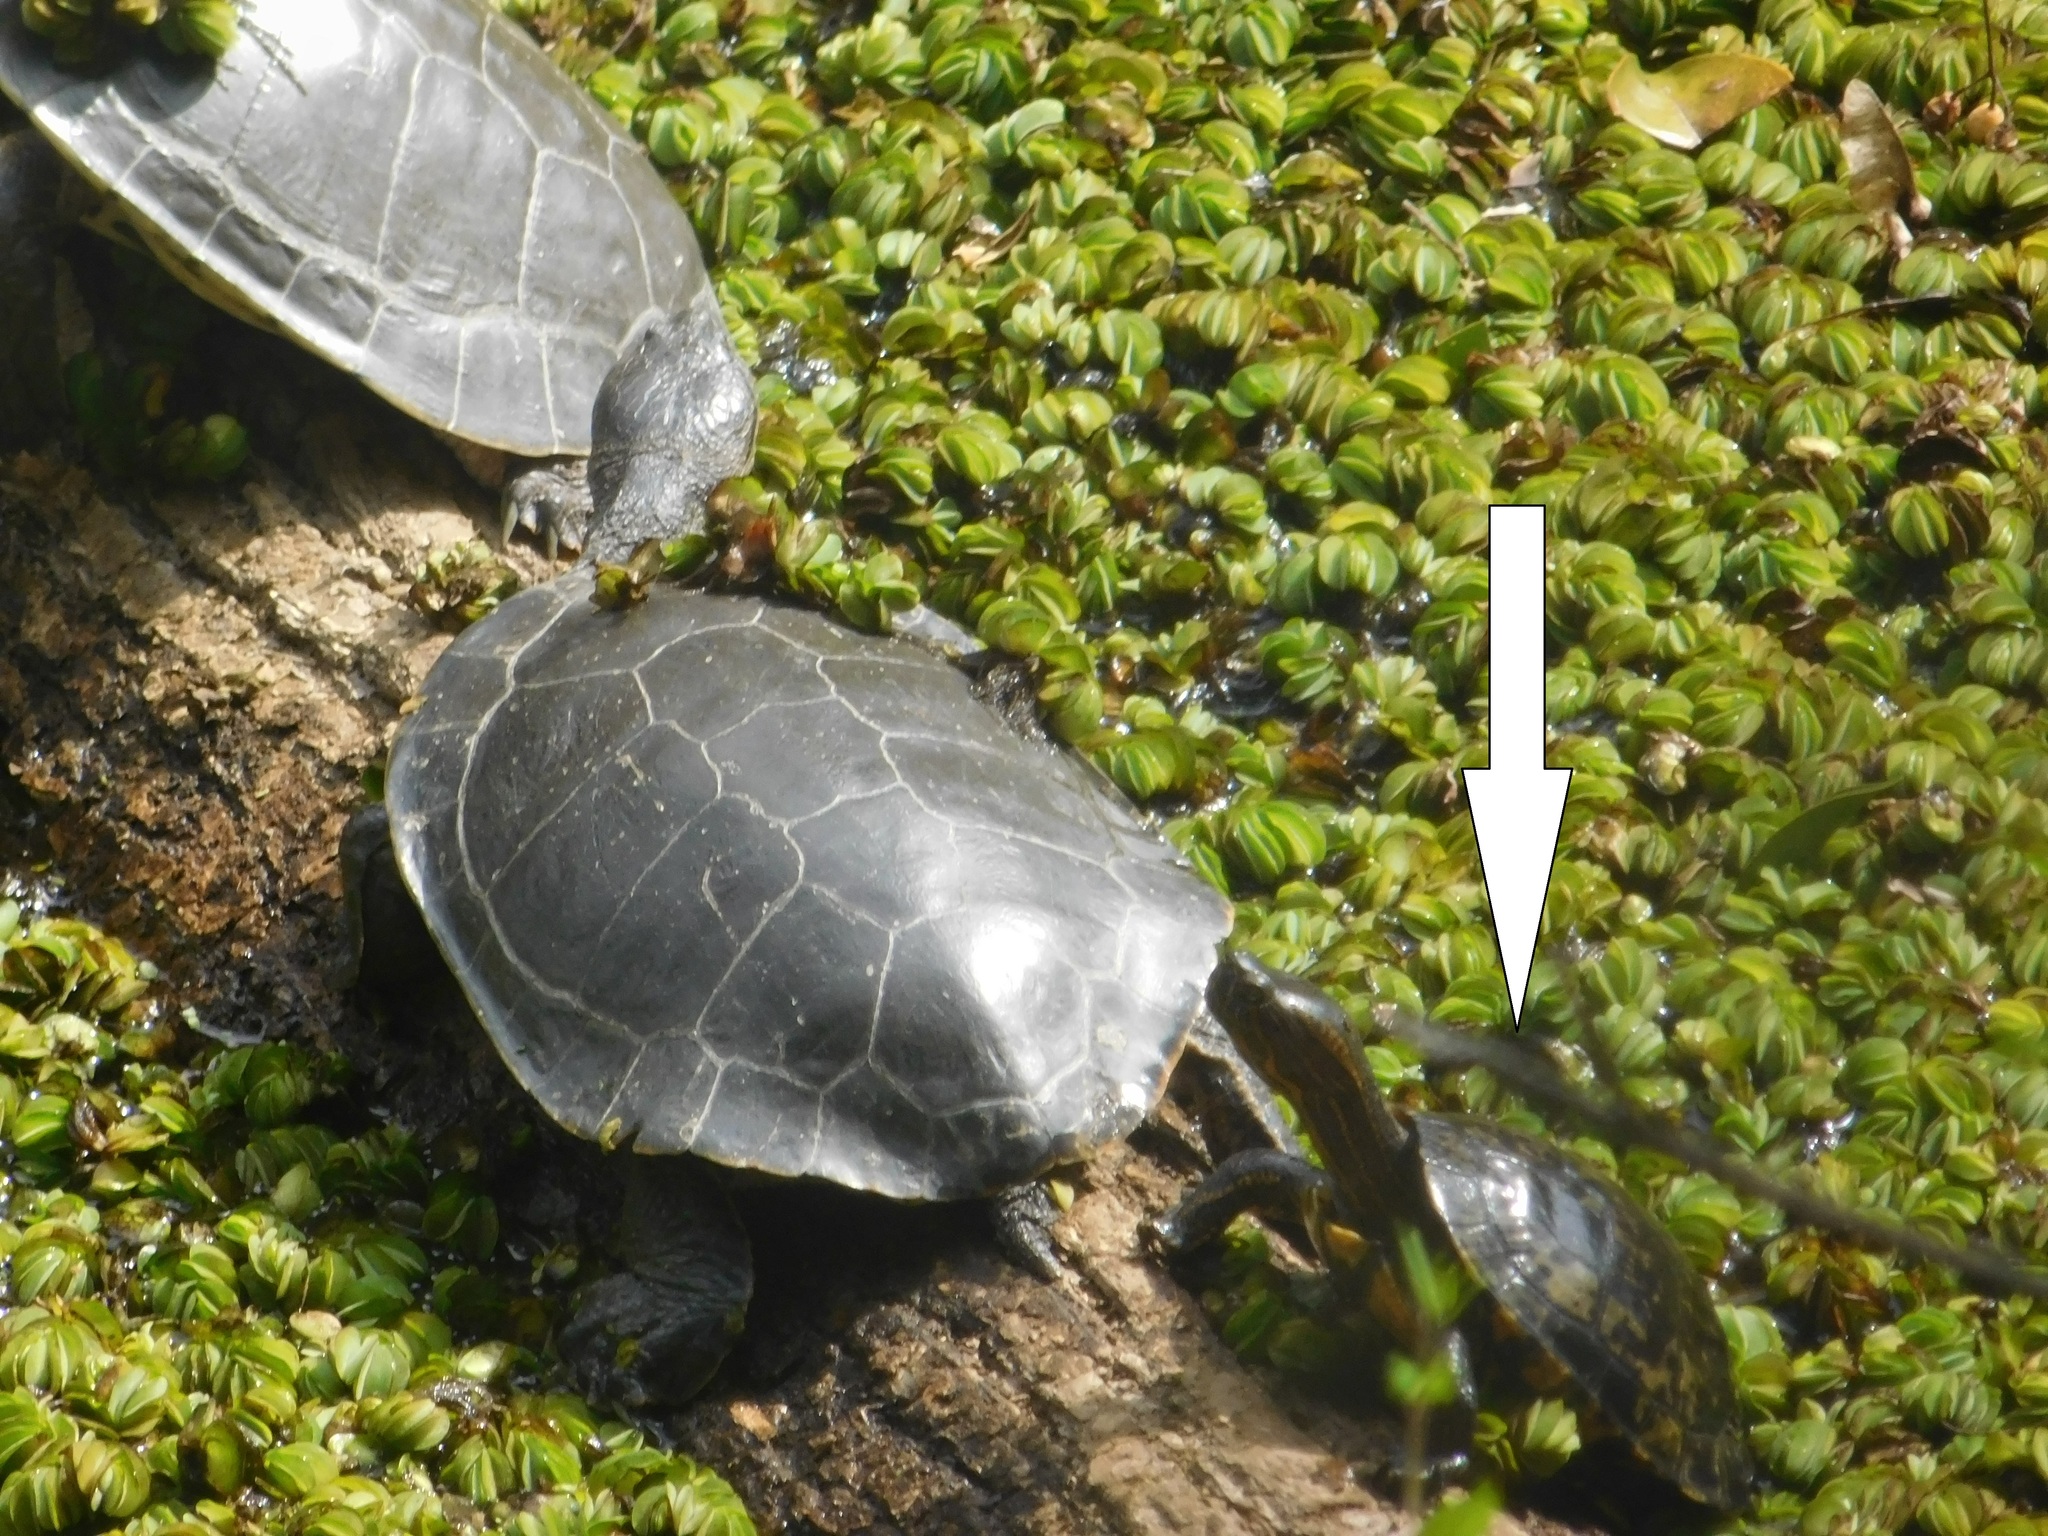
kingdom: Animalia
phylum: Chordata
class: Testudines
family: Emydidae
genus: Trachemys
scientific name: Trachemys scripta
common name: Slider
